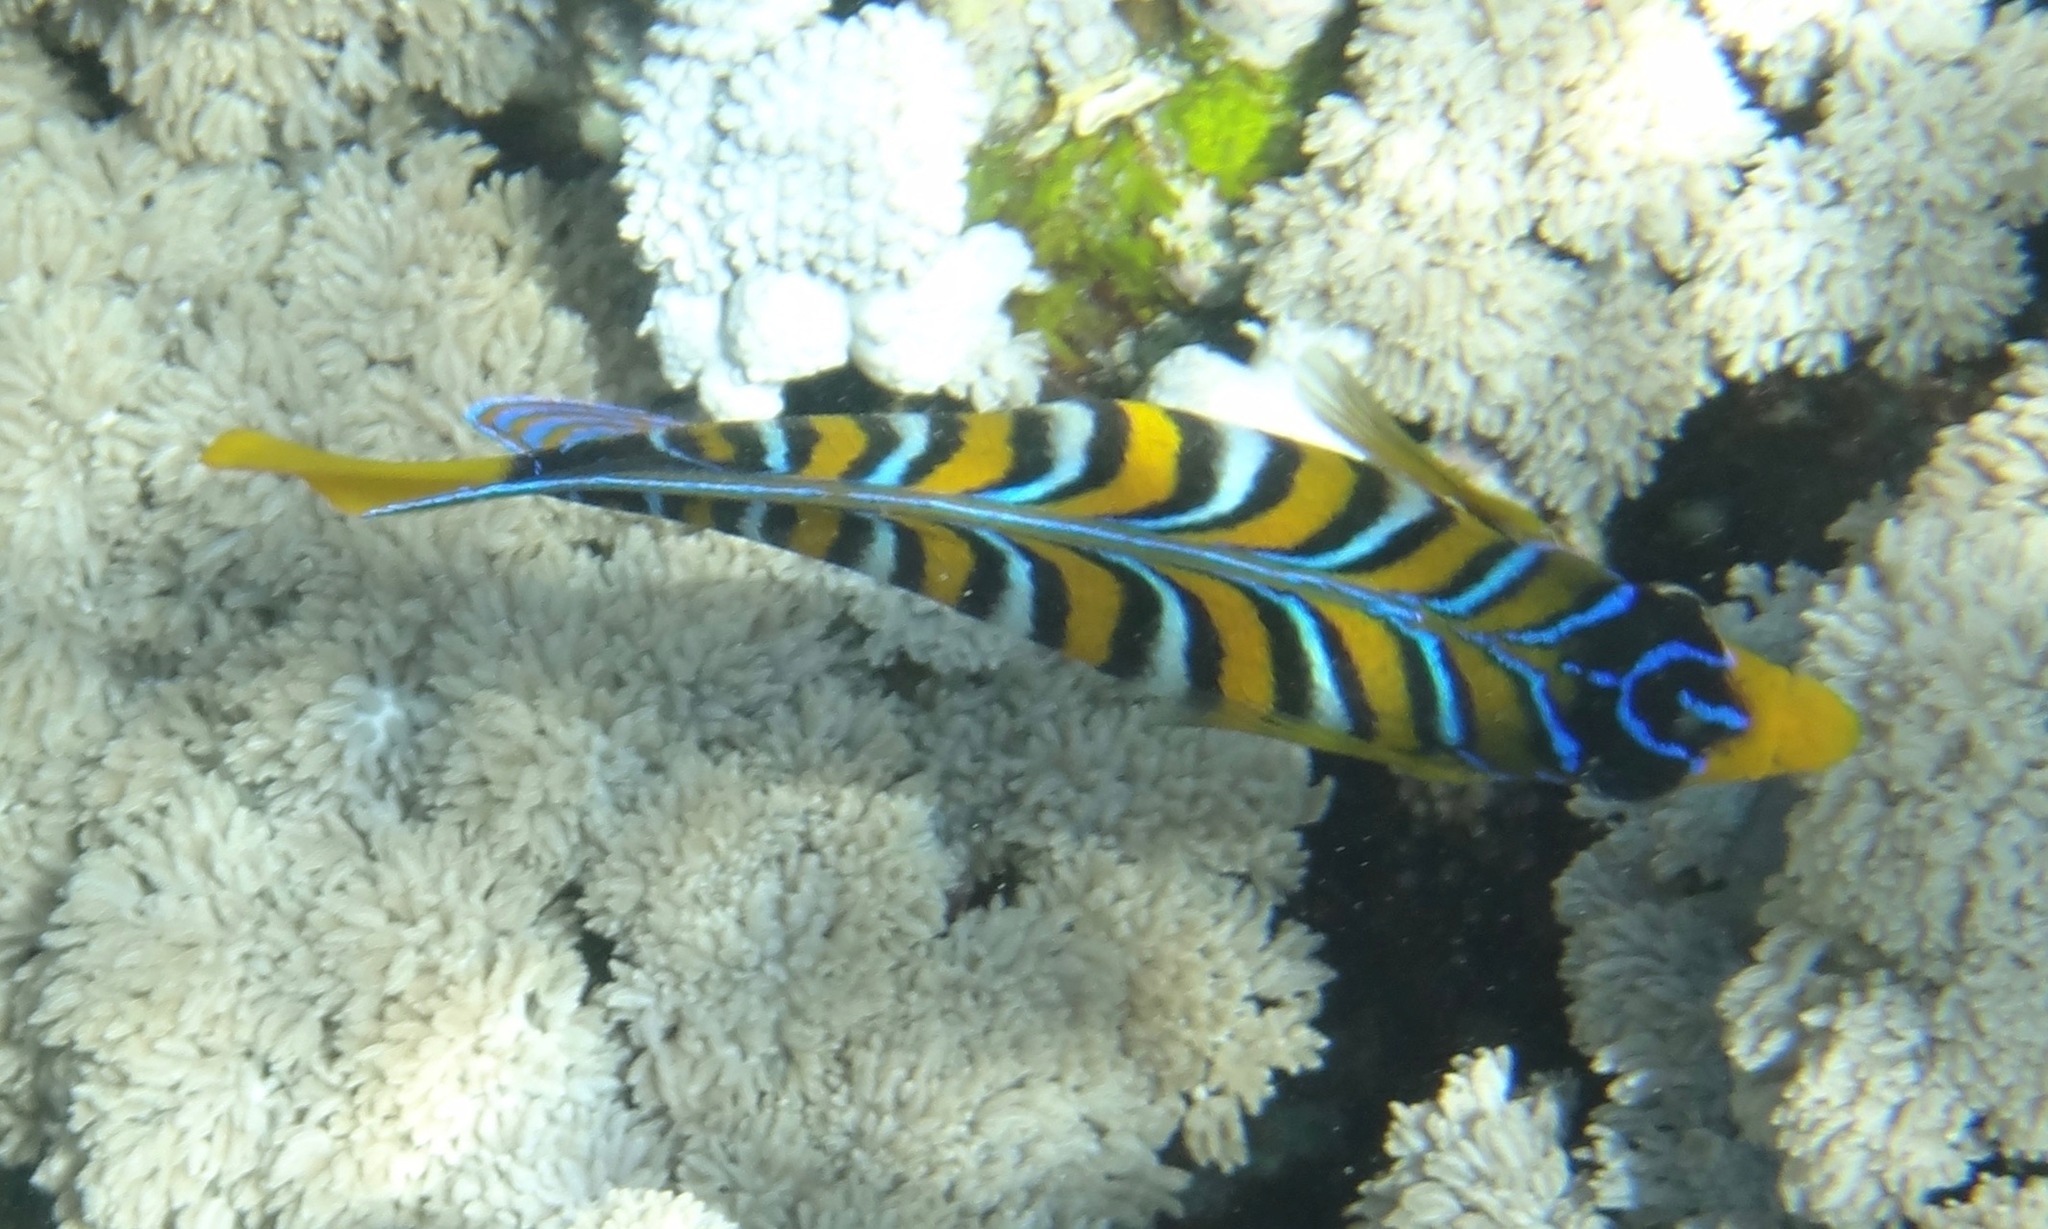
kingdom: Animalia
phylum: Chordata
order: Perciformes
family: Pomacanthidae
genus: Pygoplites
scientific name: Pygoplites diacanthus
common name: Regal angelfish
